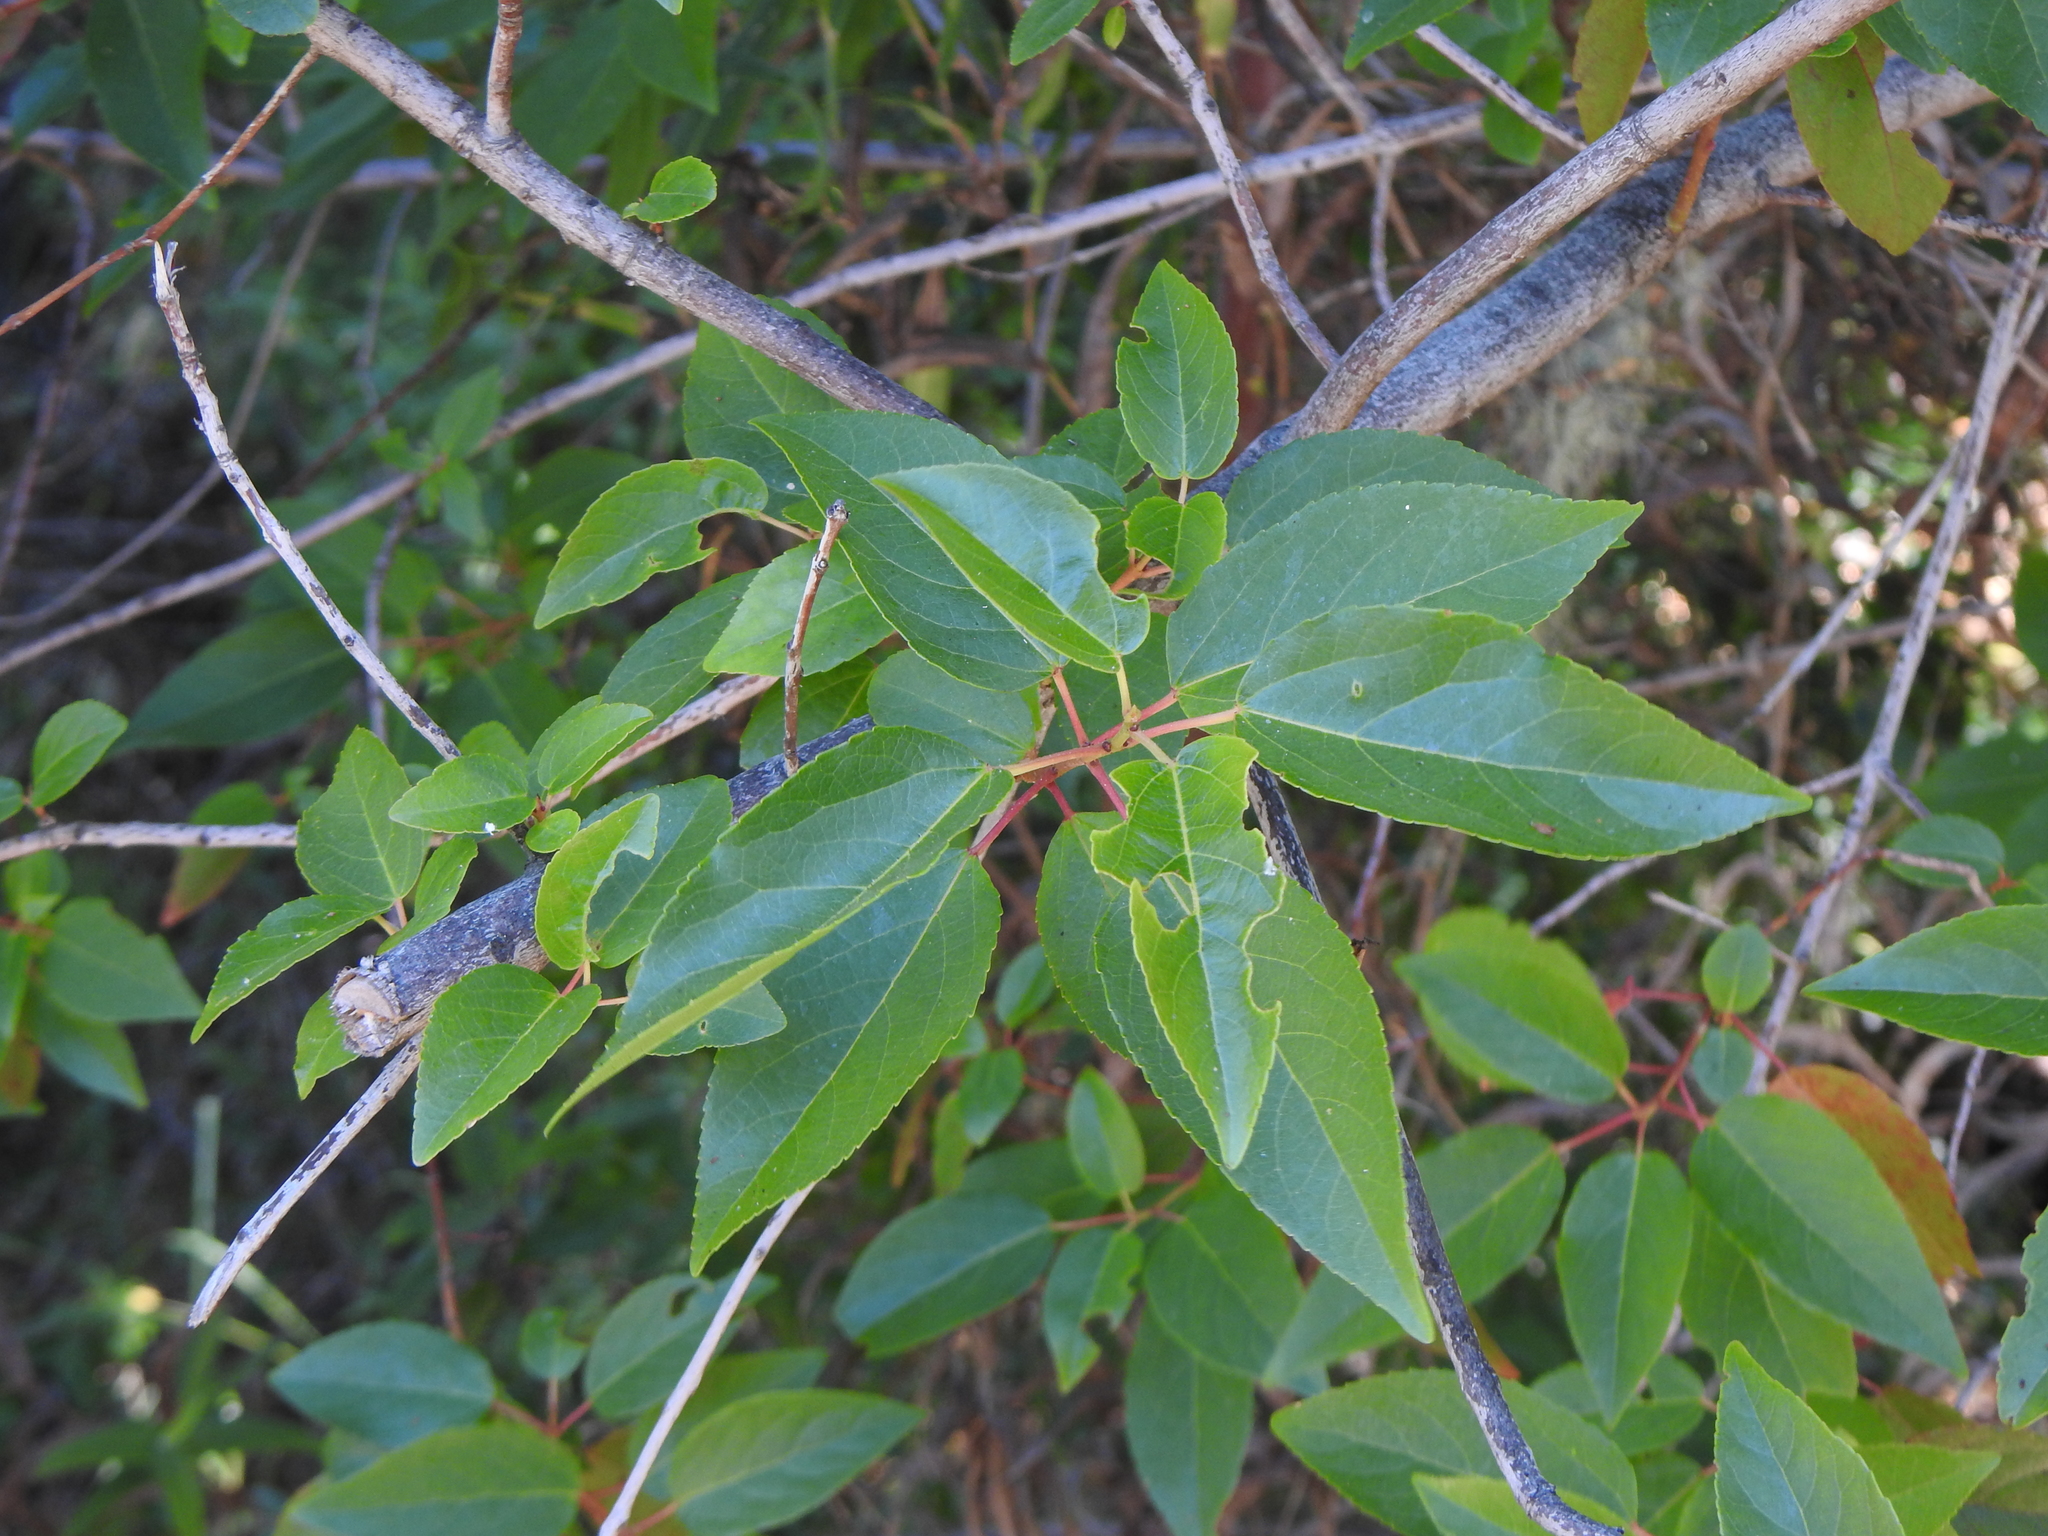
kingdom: Plantae
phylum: Tracheophyta
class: Magnoliopsida
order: Oxalidales
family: Elaeocarpaceae
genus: Aristotelia
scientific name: Aristotelia chilensis
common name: Maquei
